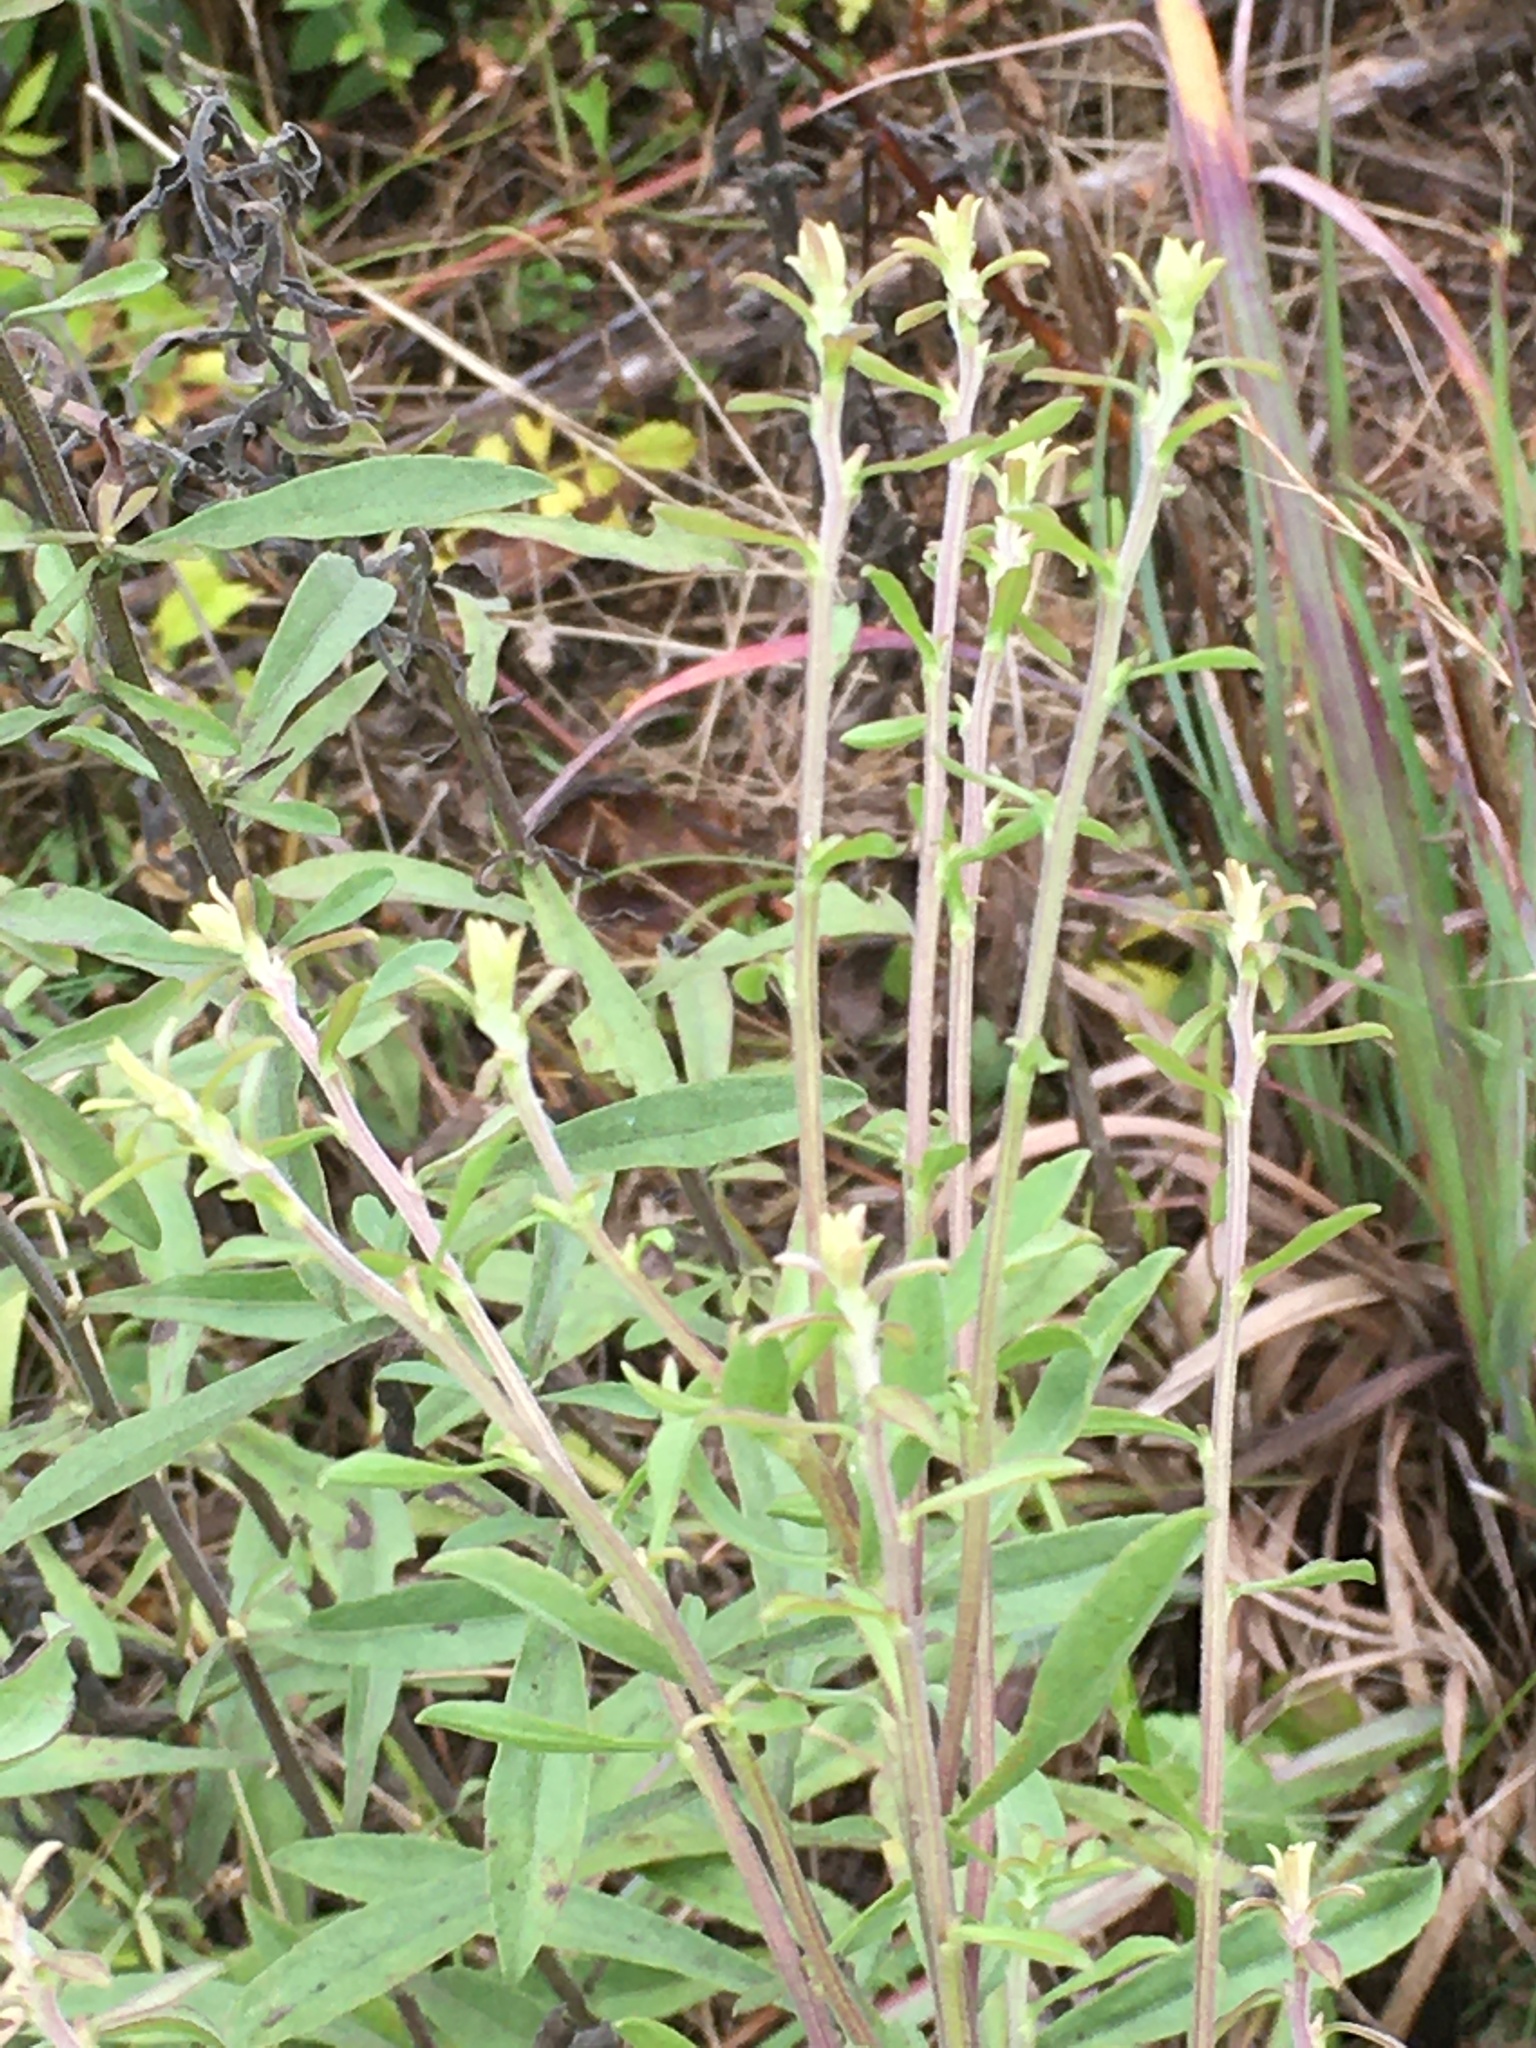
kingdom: Plantae
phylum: Tracheophyta
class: Magnoliopsida
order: Asterales
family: Asteraceae
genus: Solidago
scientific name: Solidago nemoralis
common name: Grey goldenrod
